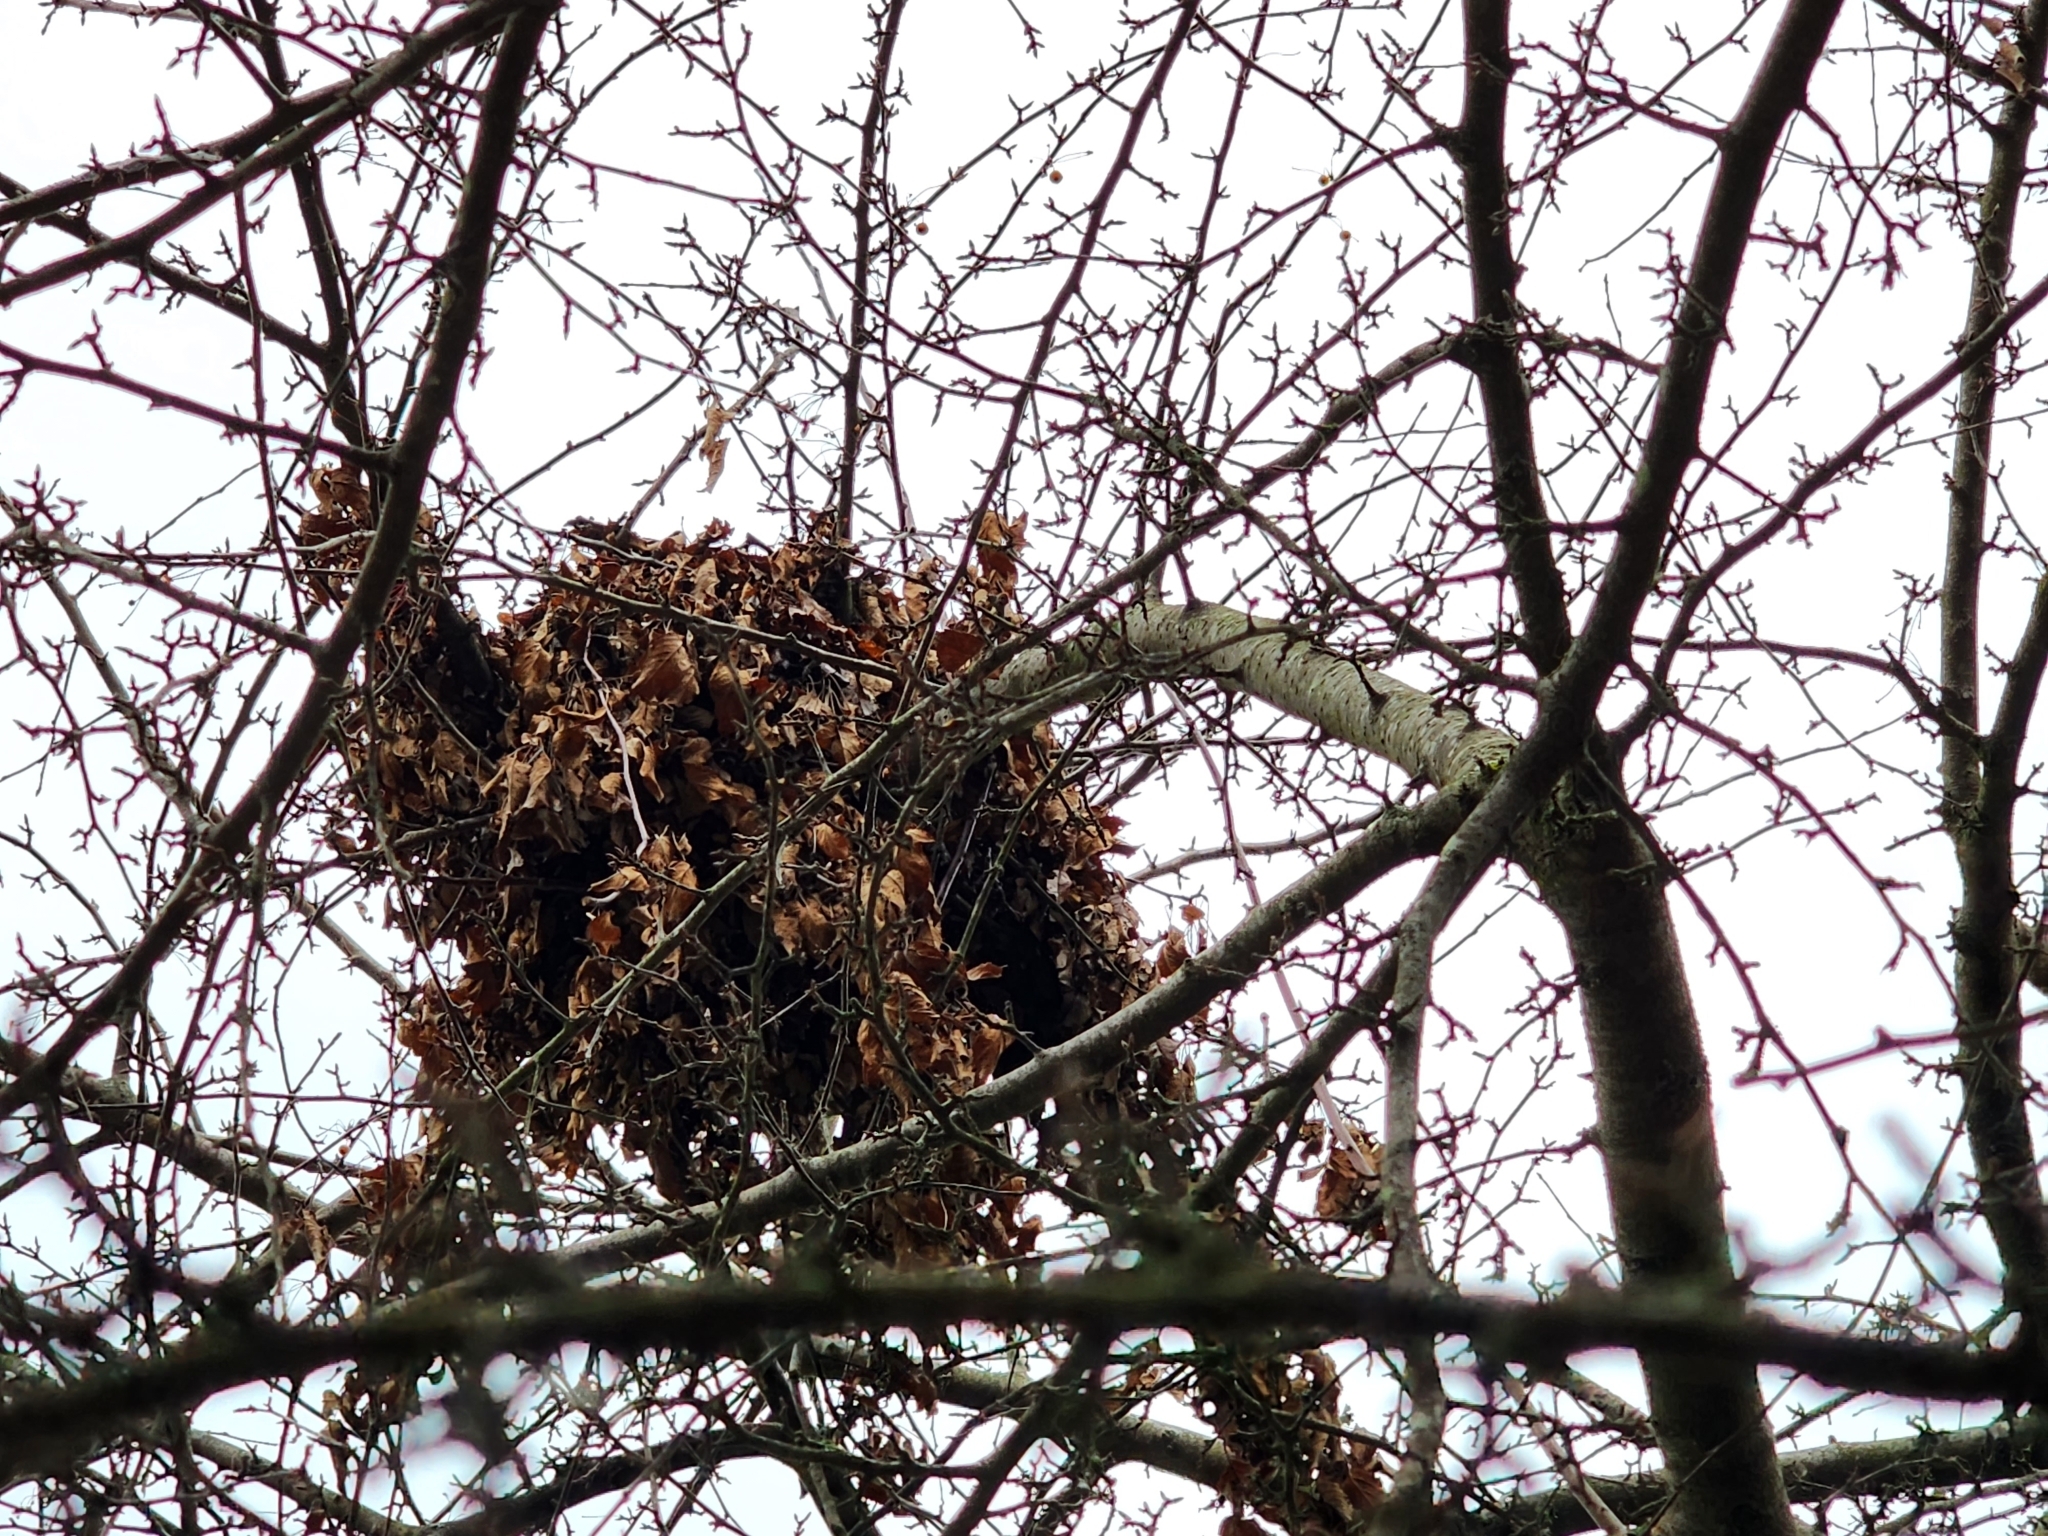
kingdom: Animalia
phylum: Chordata
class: Mammalia
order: Rodentia
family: Sciuridae
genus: Sciurus
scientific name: Sciurus carolinensis
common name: Eastern gray squirrel
